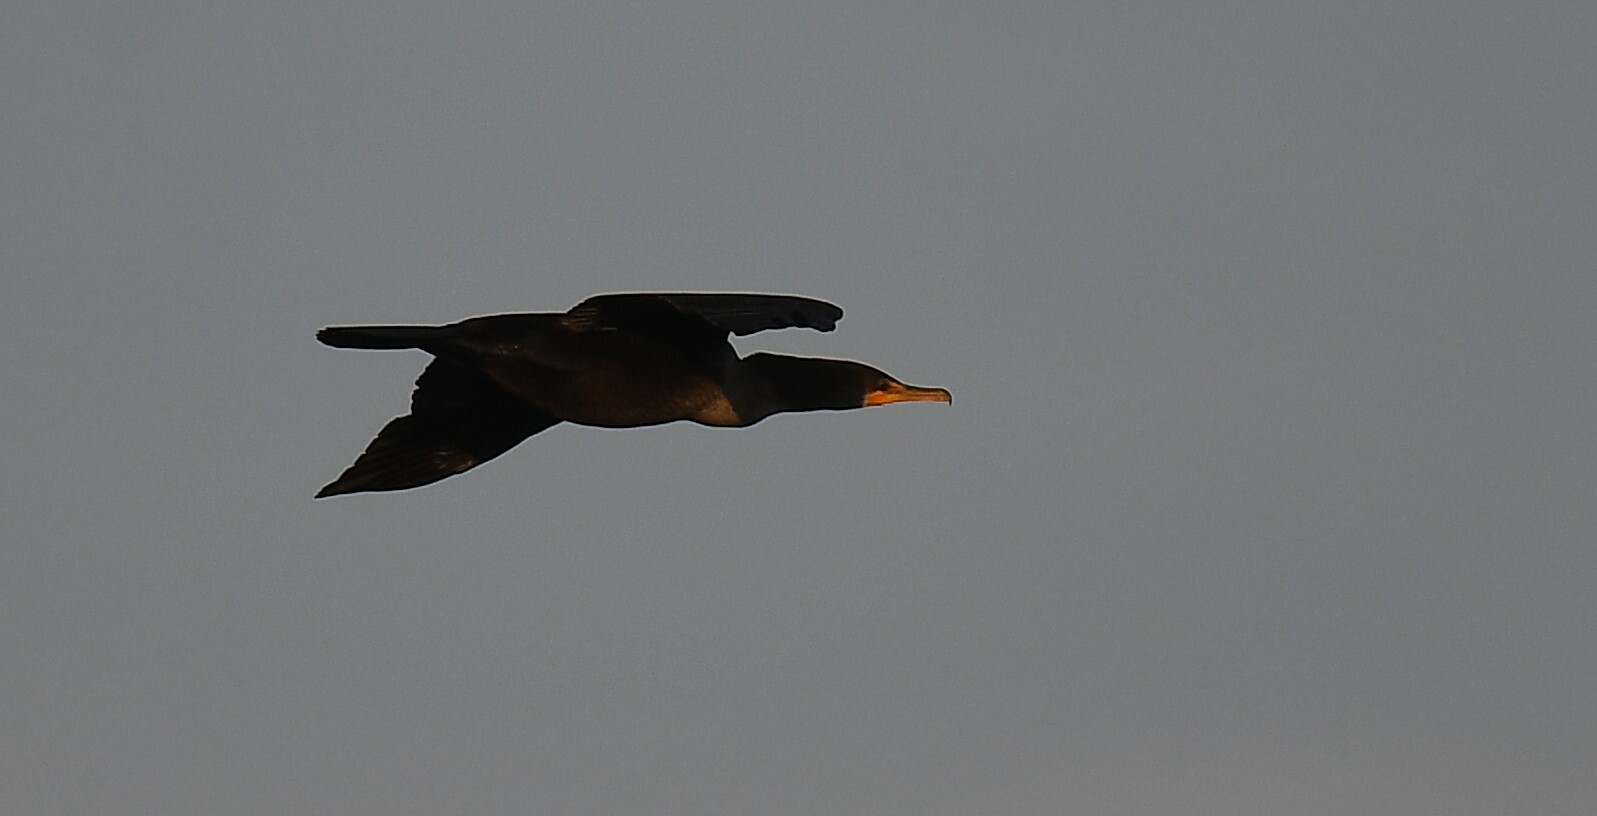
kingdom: Animalia
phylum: Chordata
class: Aves
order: Suliformes
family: Phalacrocoracidae
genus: Phalacrocorax
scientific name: Phalacrocorax auritus
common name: Double-crested cormorant
